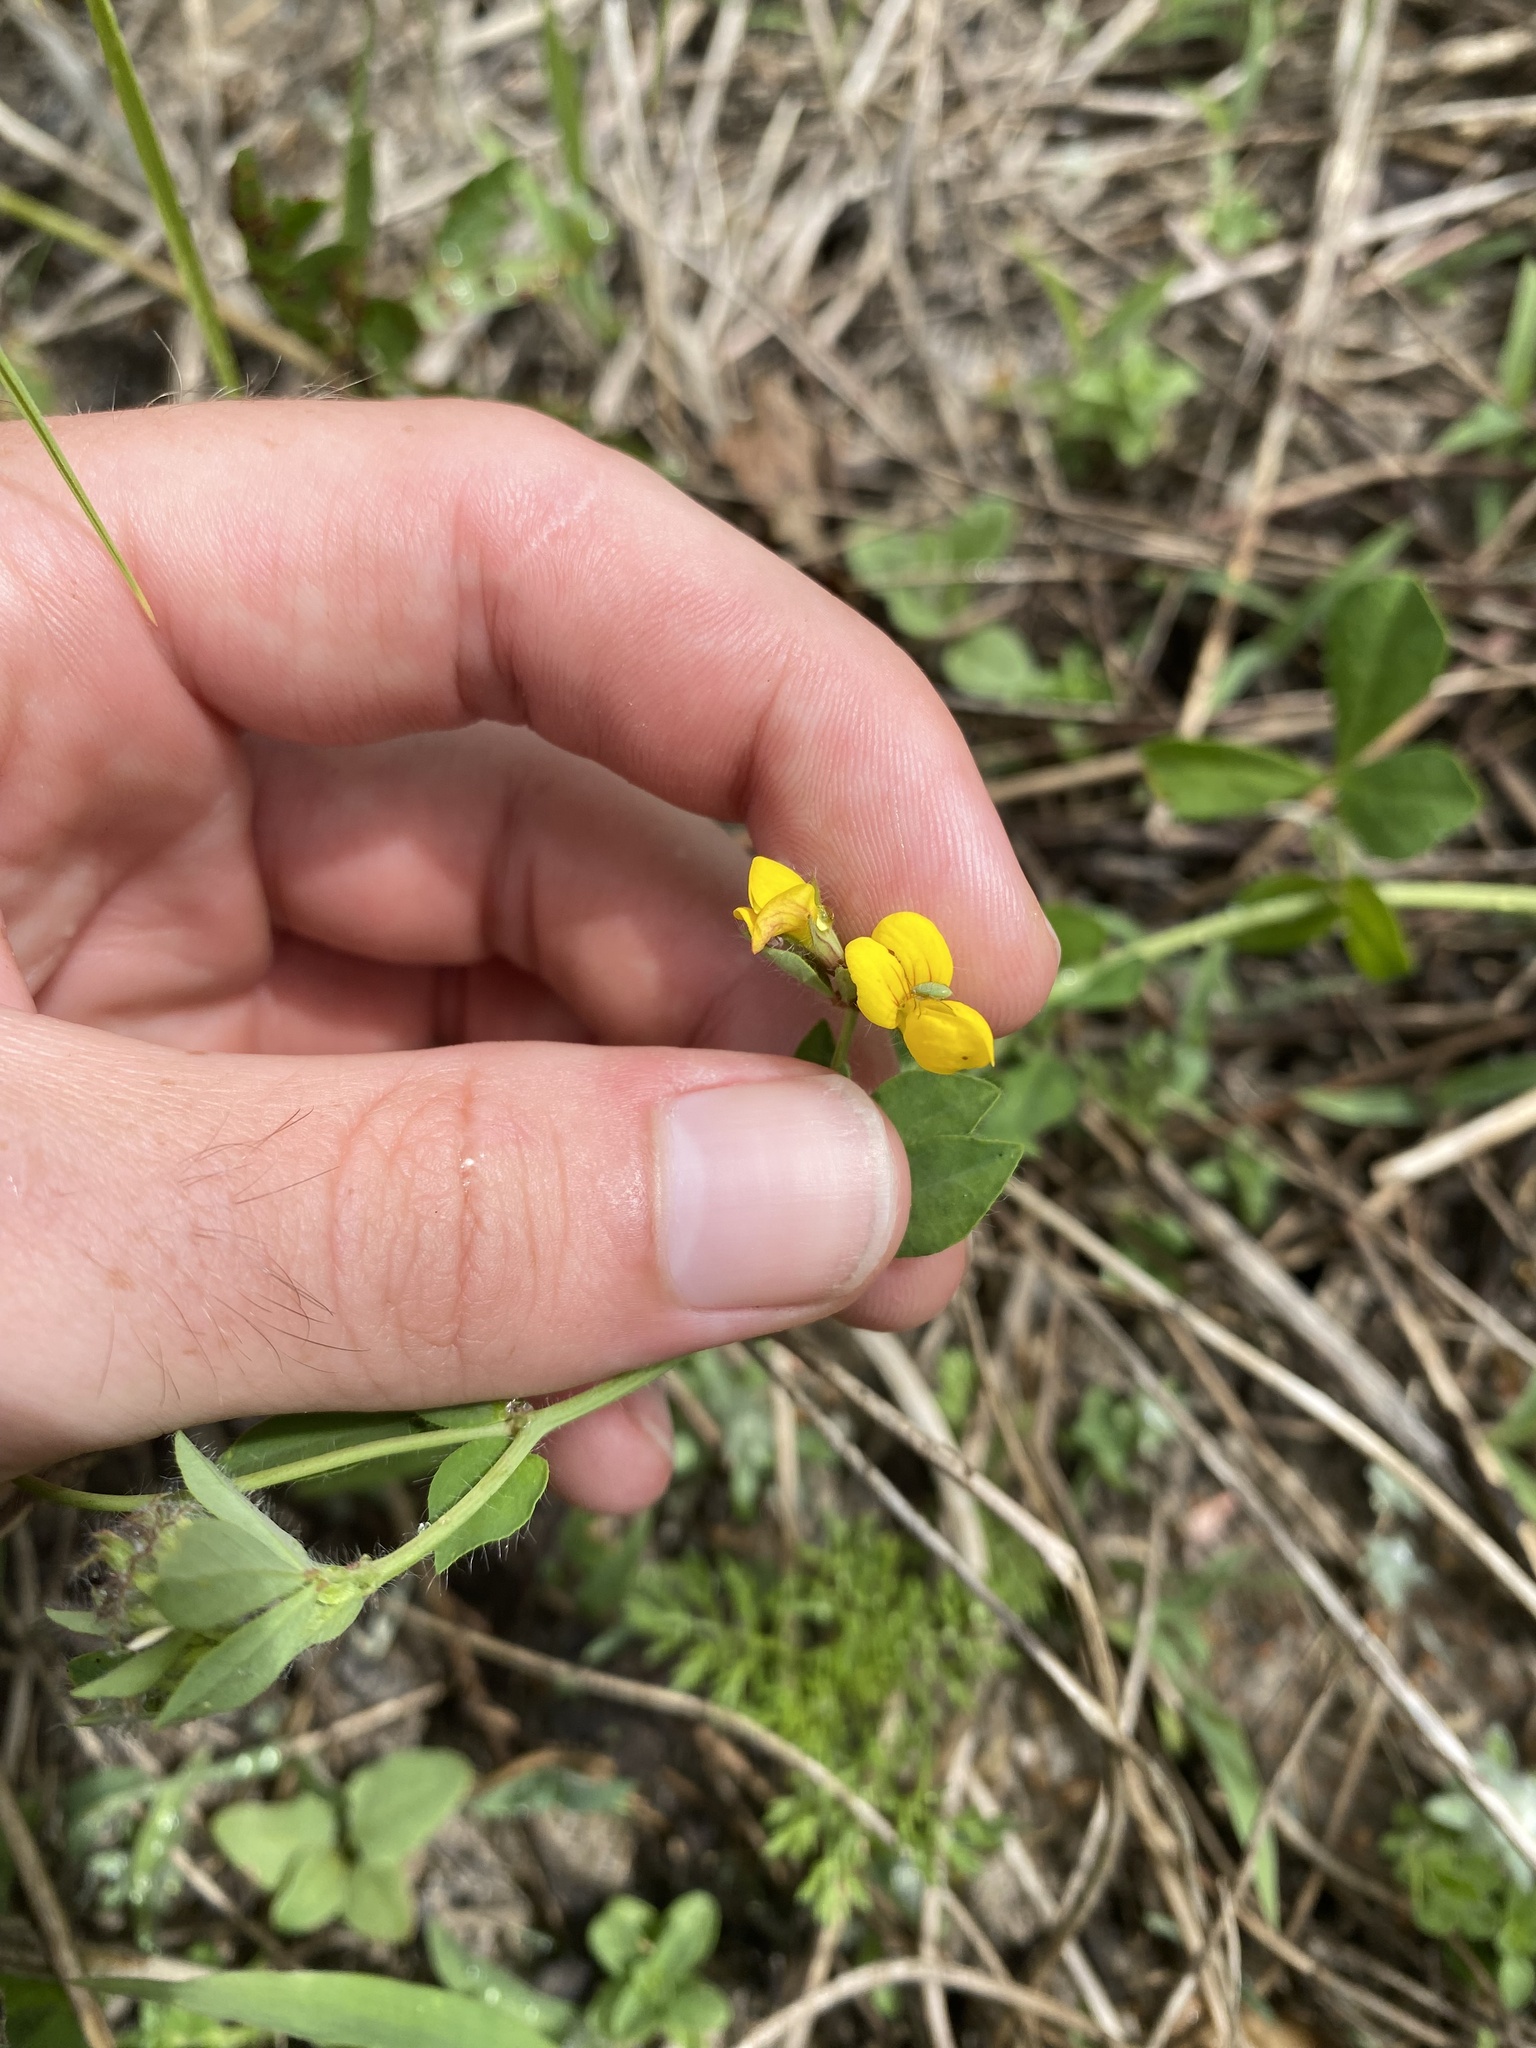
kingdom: Plantae
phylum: Tracheophyta
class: Magnoliopsida
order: Fabales
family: Fabaceae
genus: Lotus
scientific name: Lotus pedunculatus
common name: Greater birdsfoot-trefoil
